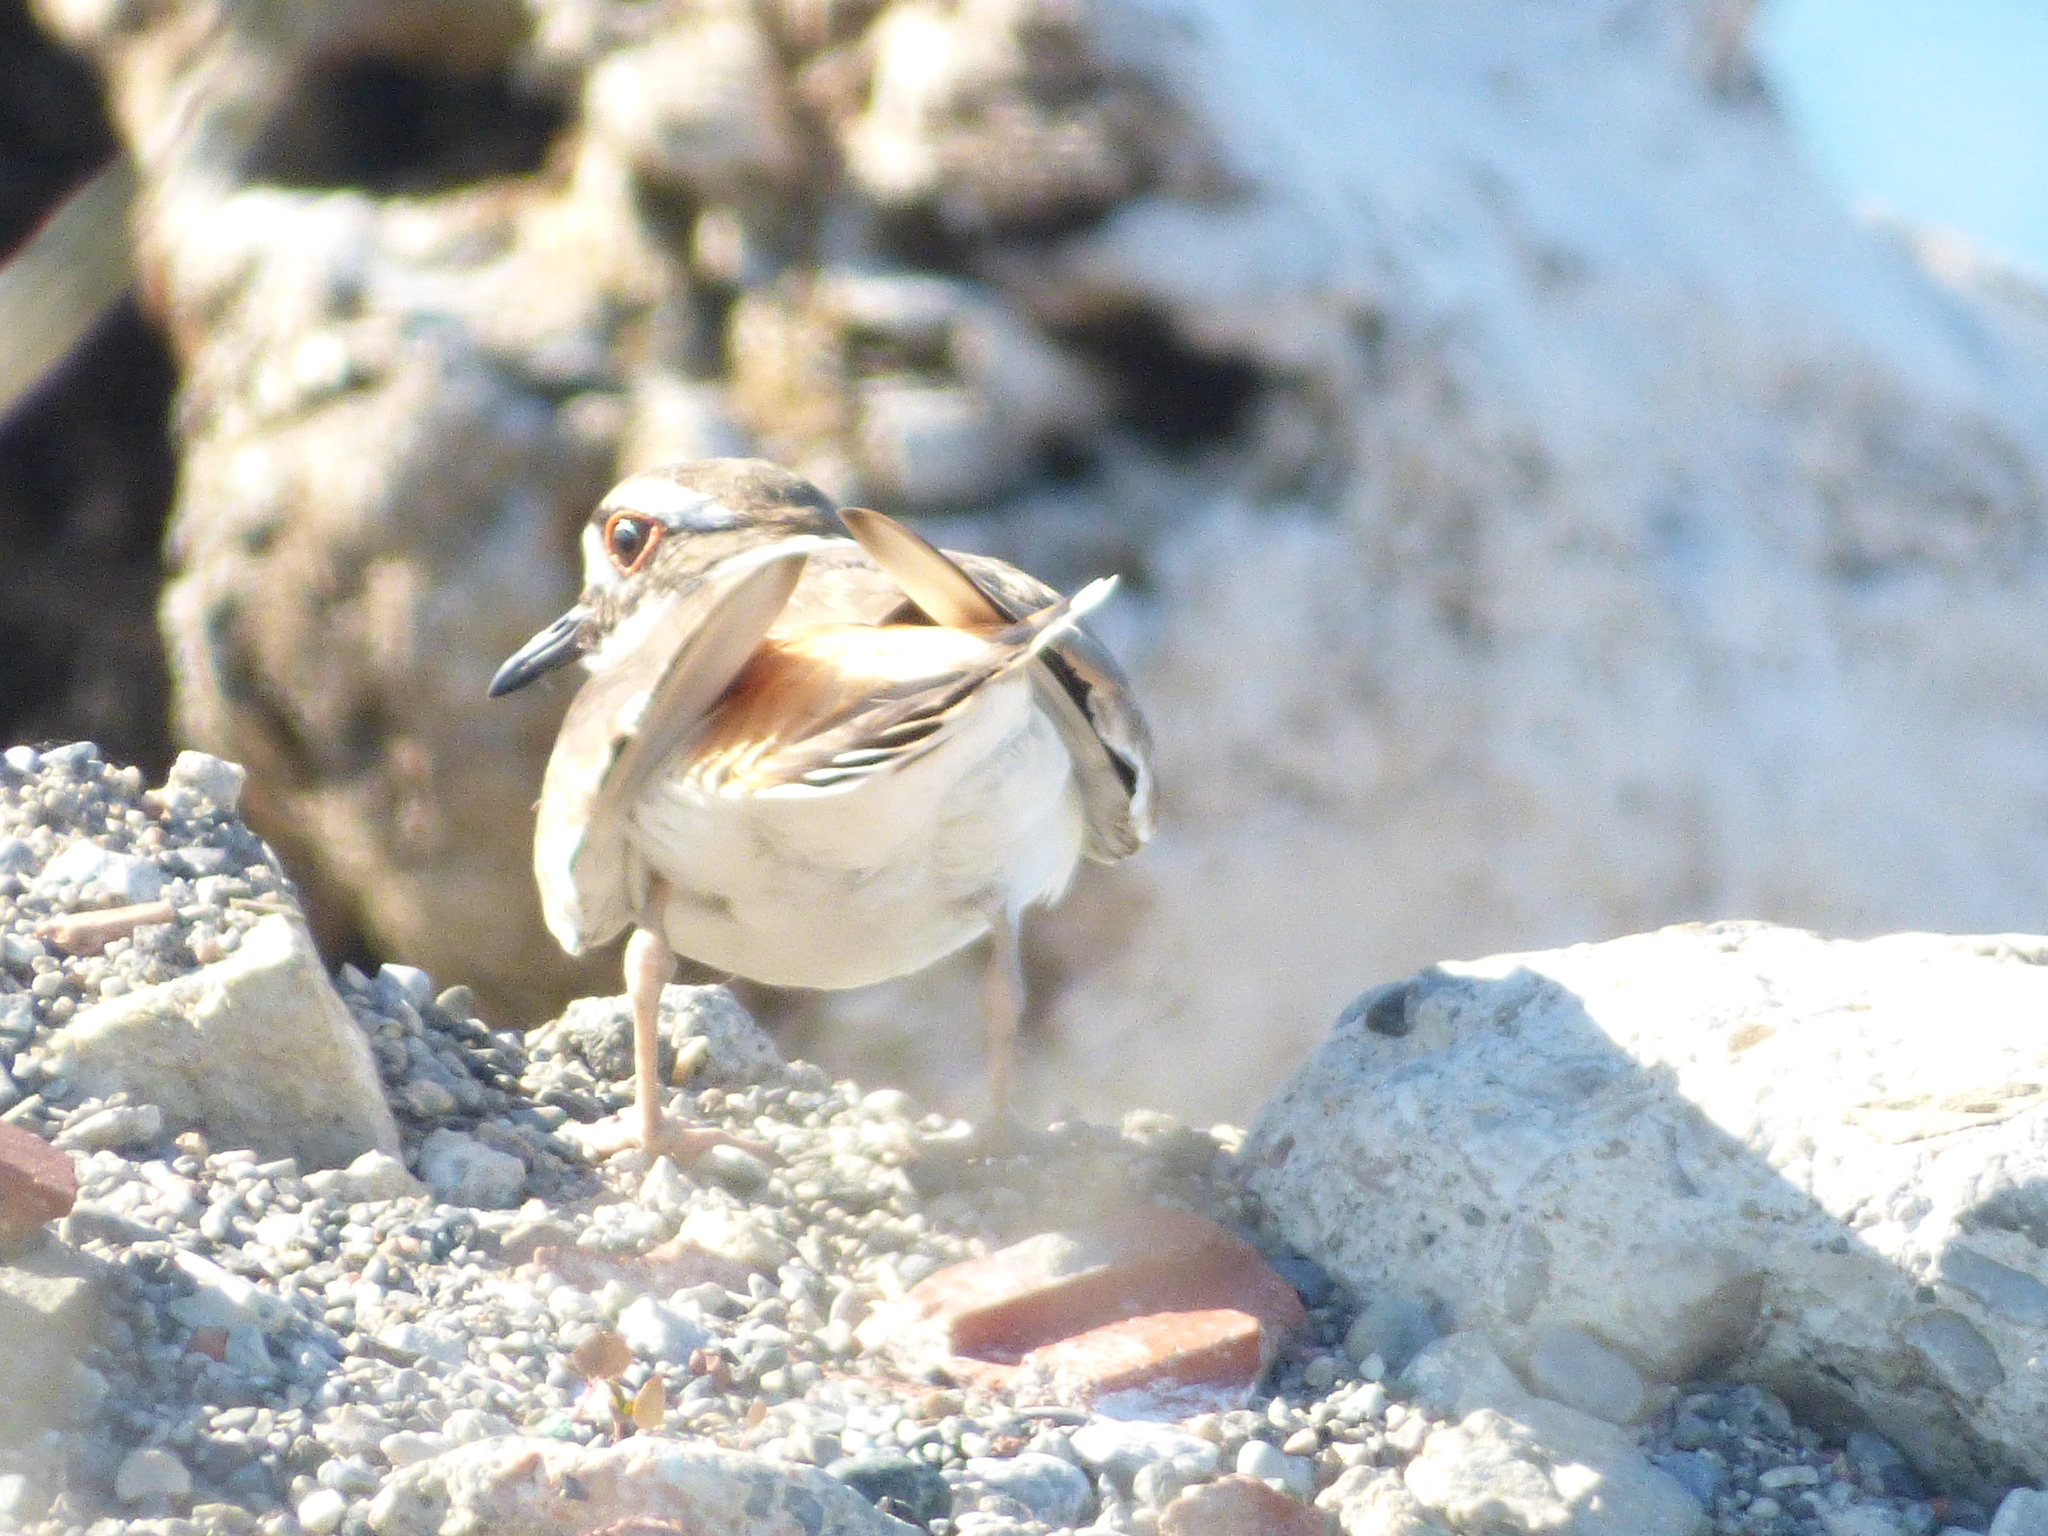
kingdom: Animalia
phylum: Chordata
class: Aves
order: Charadriiformes
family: Charadriidae
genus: Charadrius
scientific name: Charadrius vociferus
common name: Killdeer
